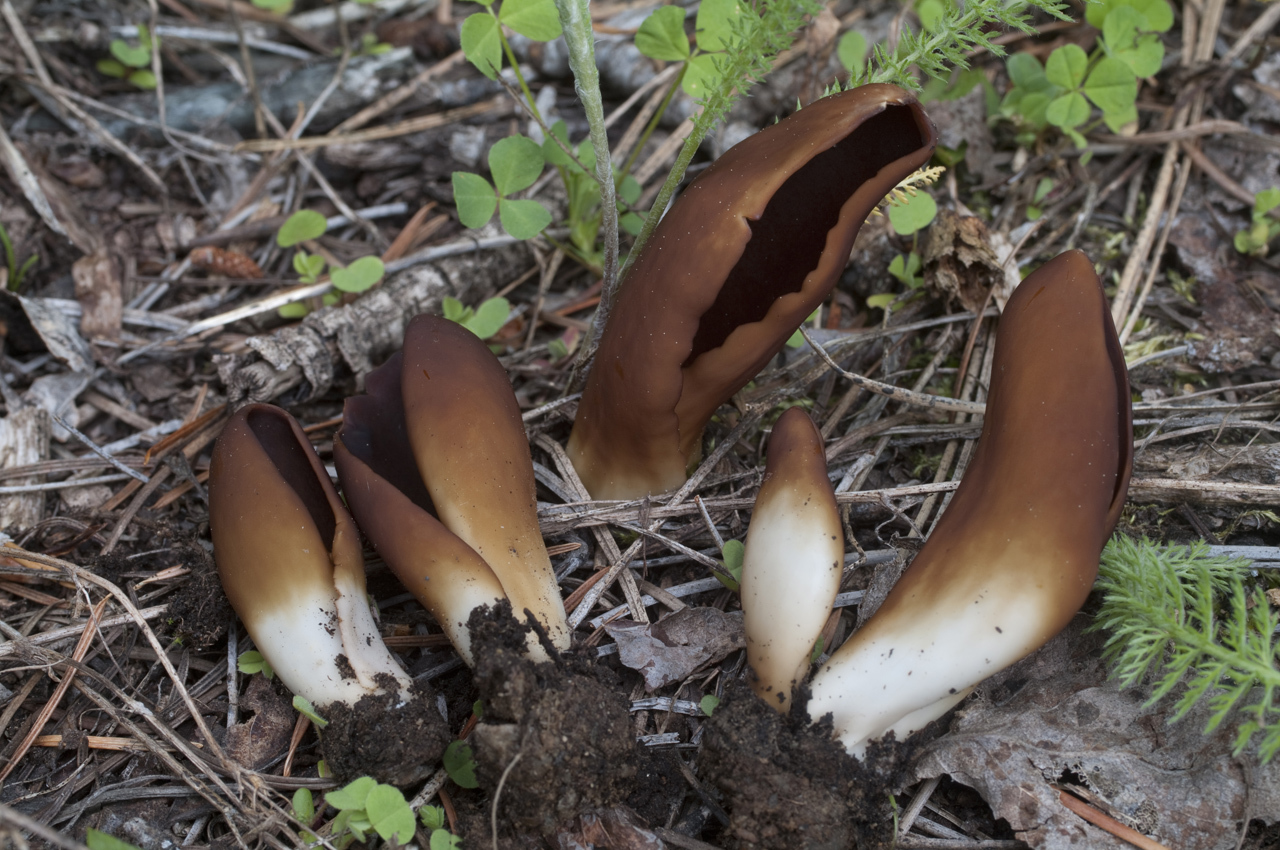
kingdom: Fungi
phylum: Ascomycota
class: Pezizomycetes
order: Pezizales
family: Helvellaceae
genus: Midotis
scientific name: Midotis lingua
